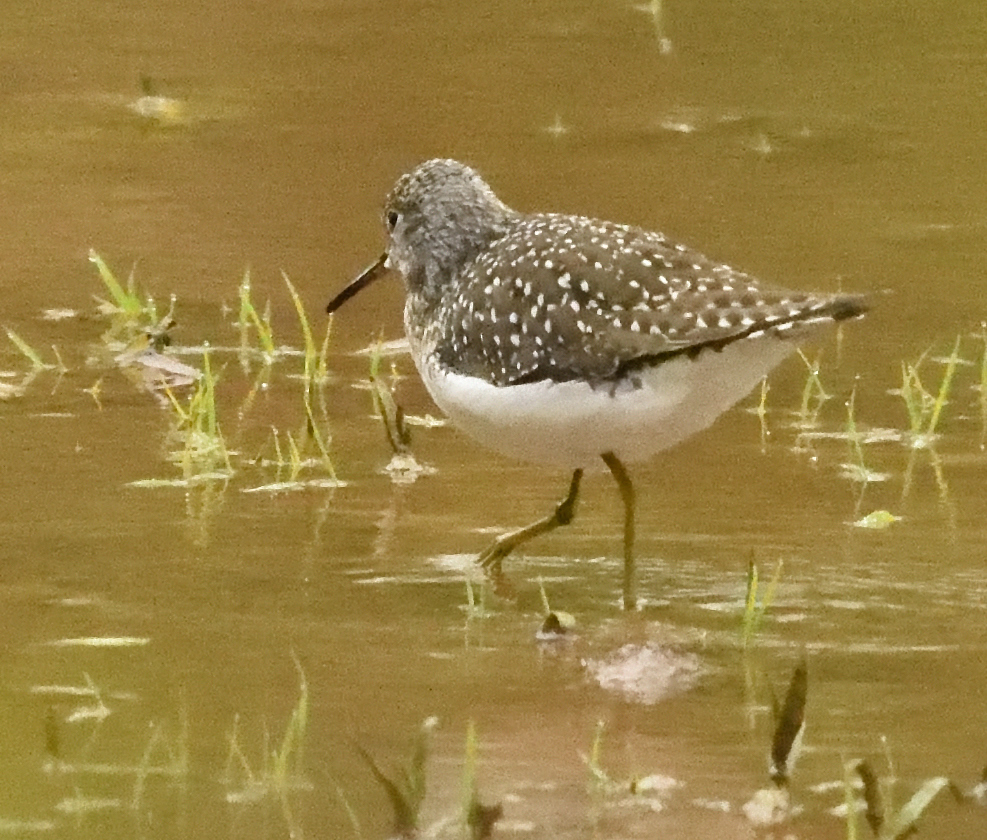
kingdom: Animalia
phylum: Chordata
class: Aves
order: Charadriiformes
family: Scolopacidae
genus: Tringa
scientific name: Tringa solitaria
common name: Solitary sandpiper
